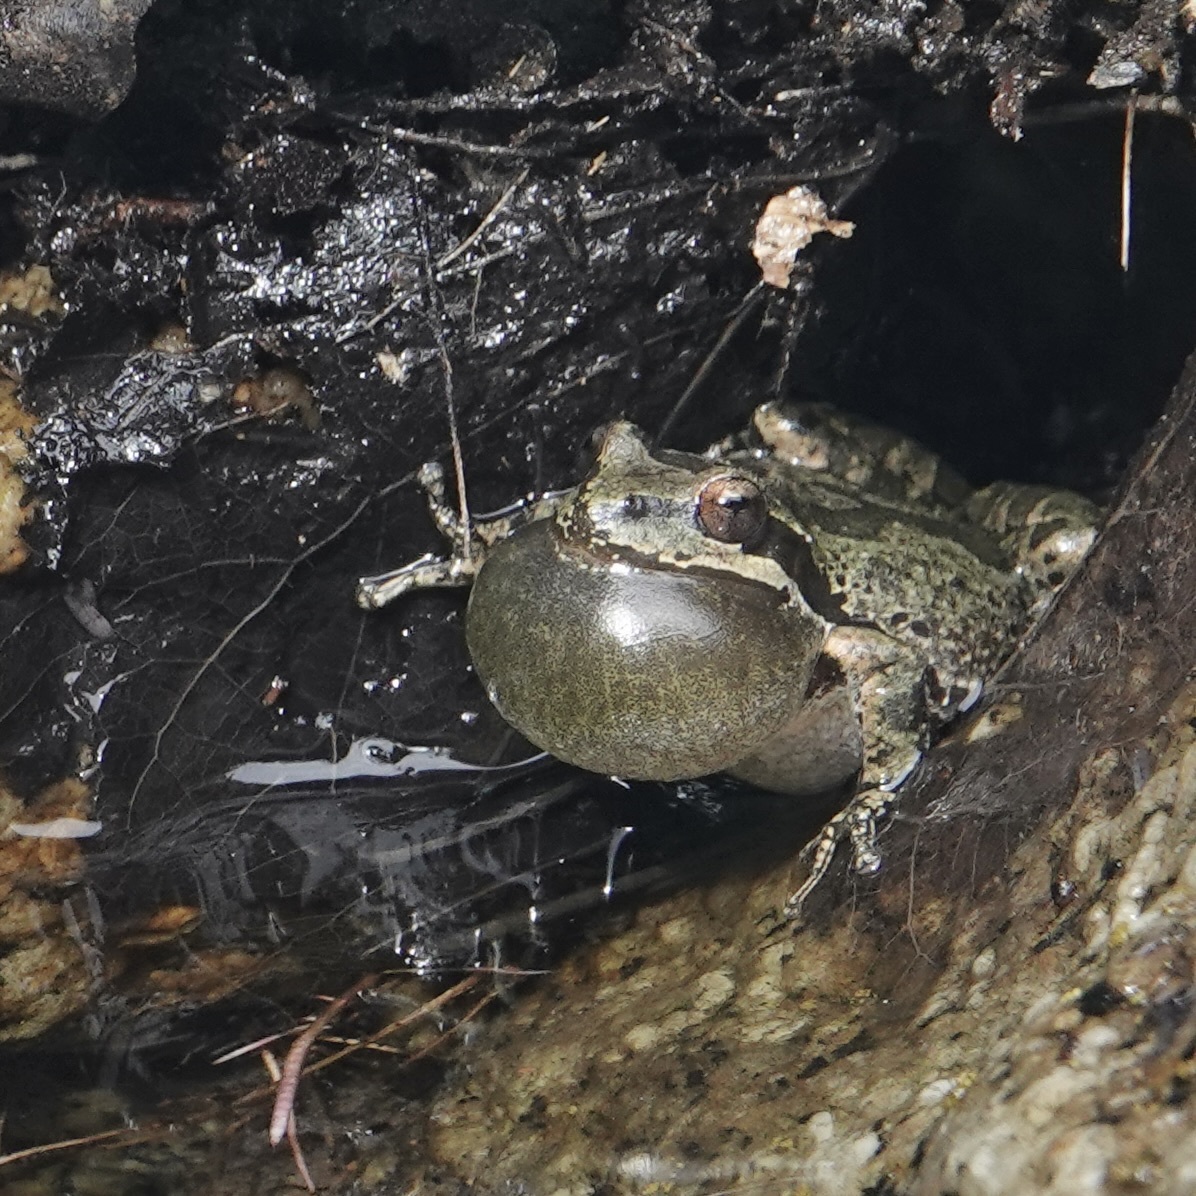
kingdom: Animalia
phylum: Chordata
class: Amphibia
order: Anura
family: Hylidae
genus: Pseudacris
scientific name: Pseudacris regilla
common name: Pacific chorus frog
